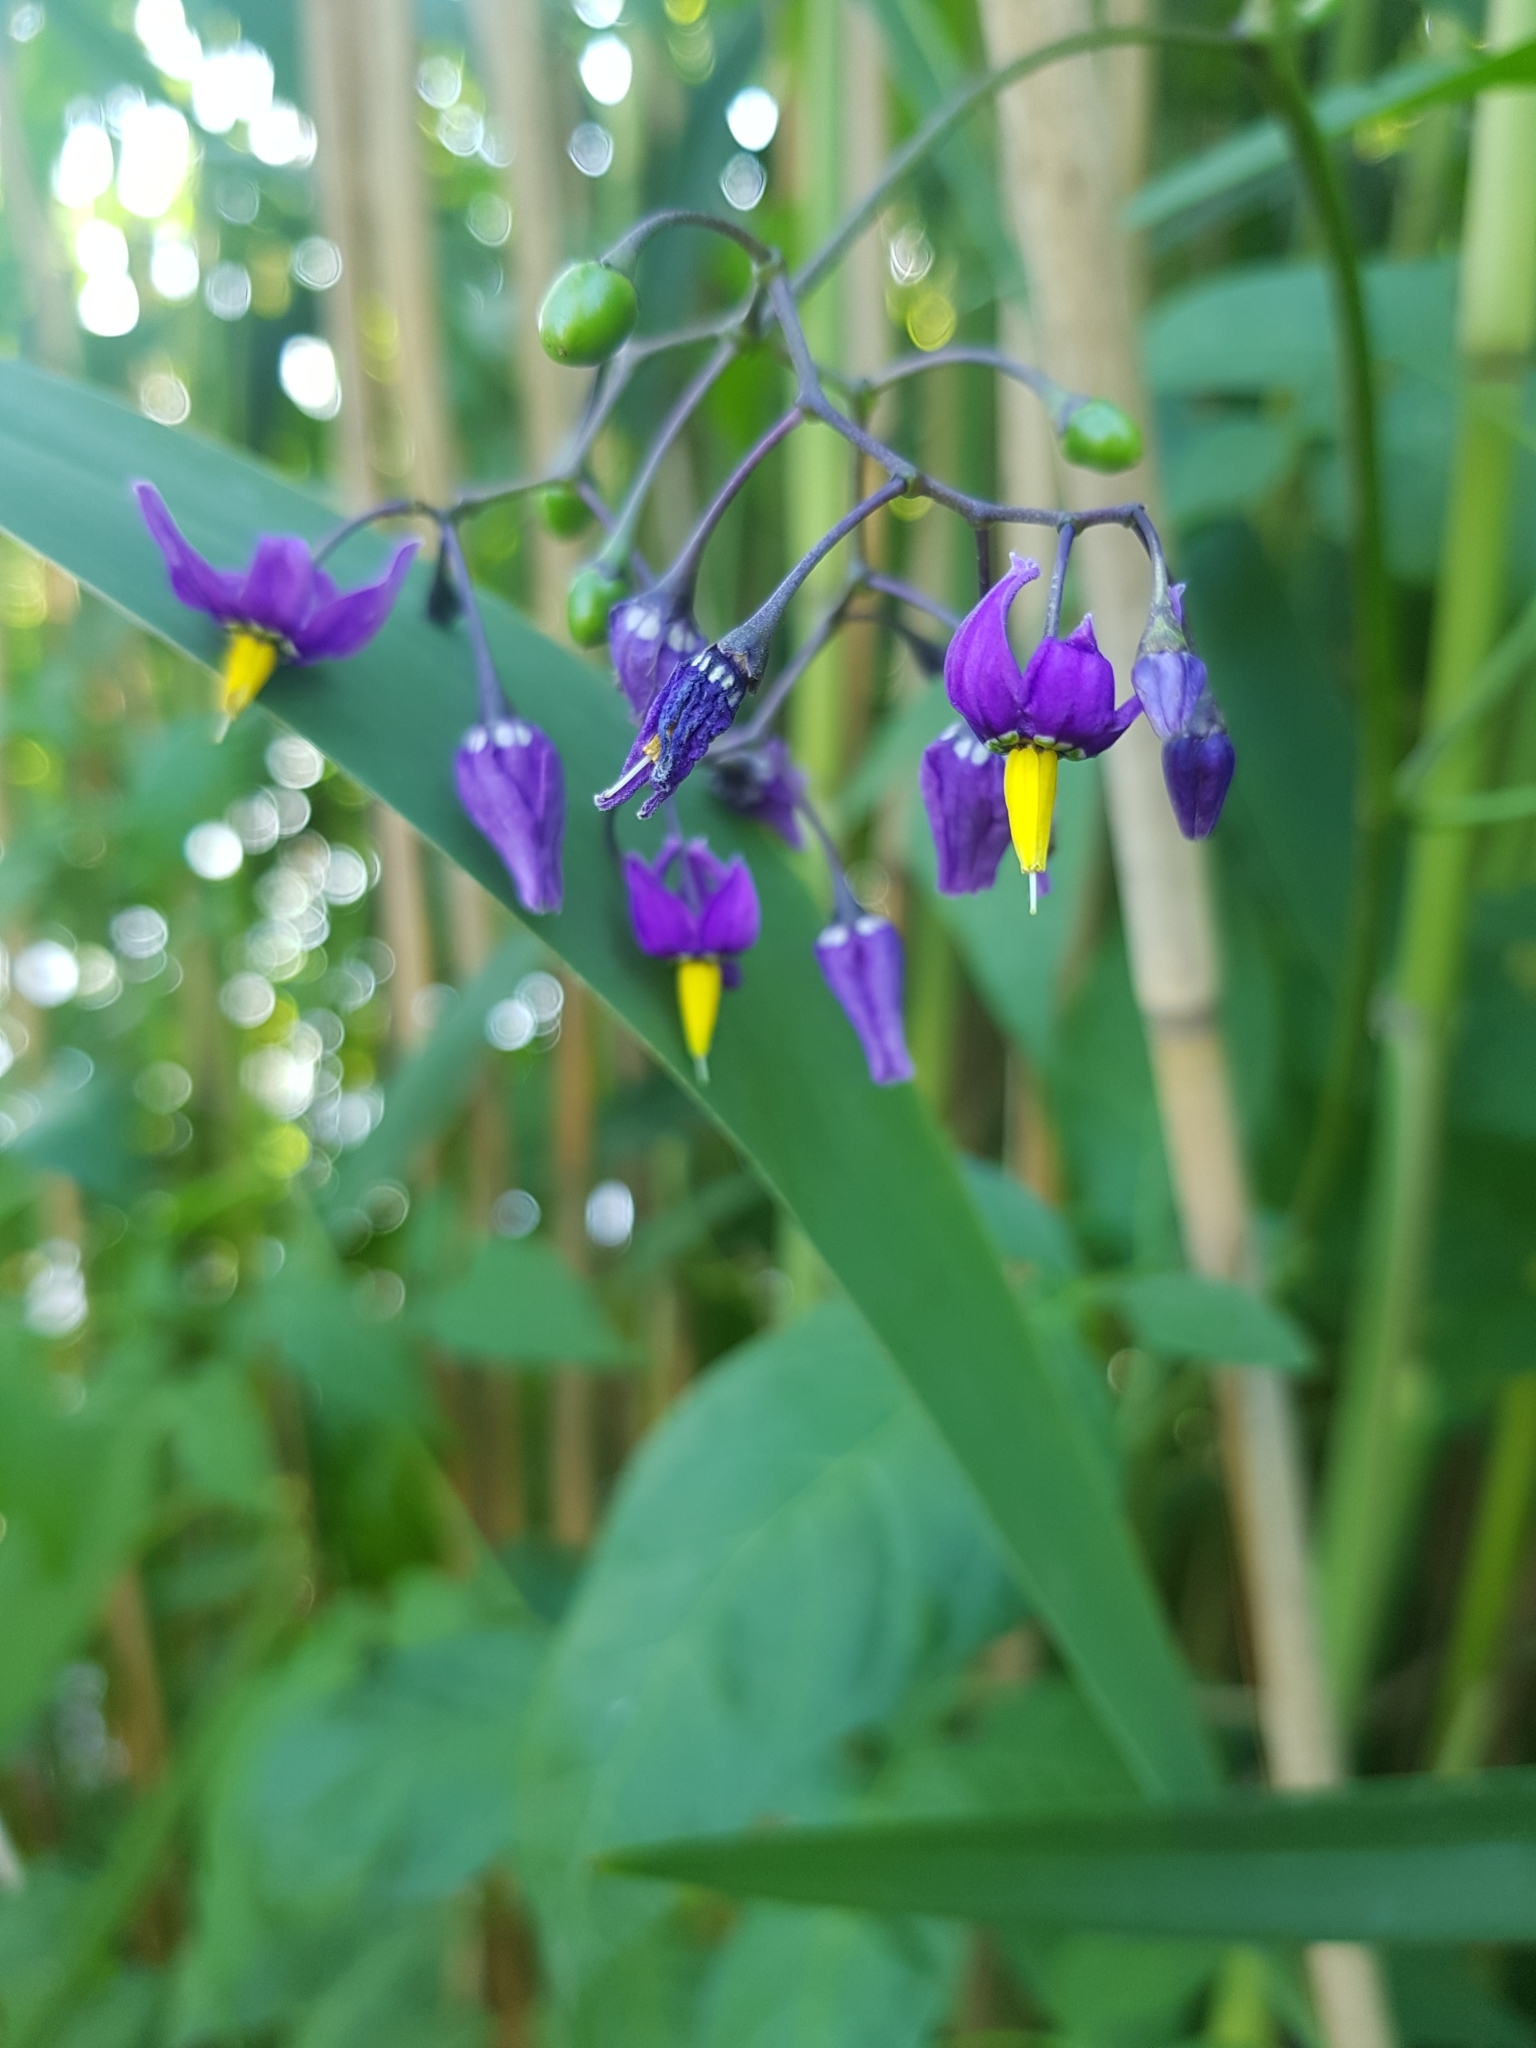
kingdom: Plantae
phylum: Tracheophyta
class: Magnoliopsida
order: Solanales
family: Solanaceae
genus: Solanum
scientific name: Solanum dulcamara
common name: Climbing nightshade
